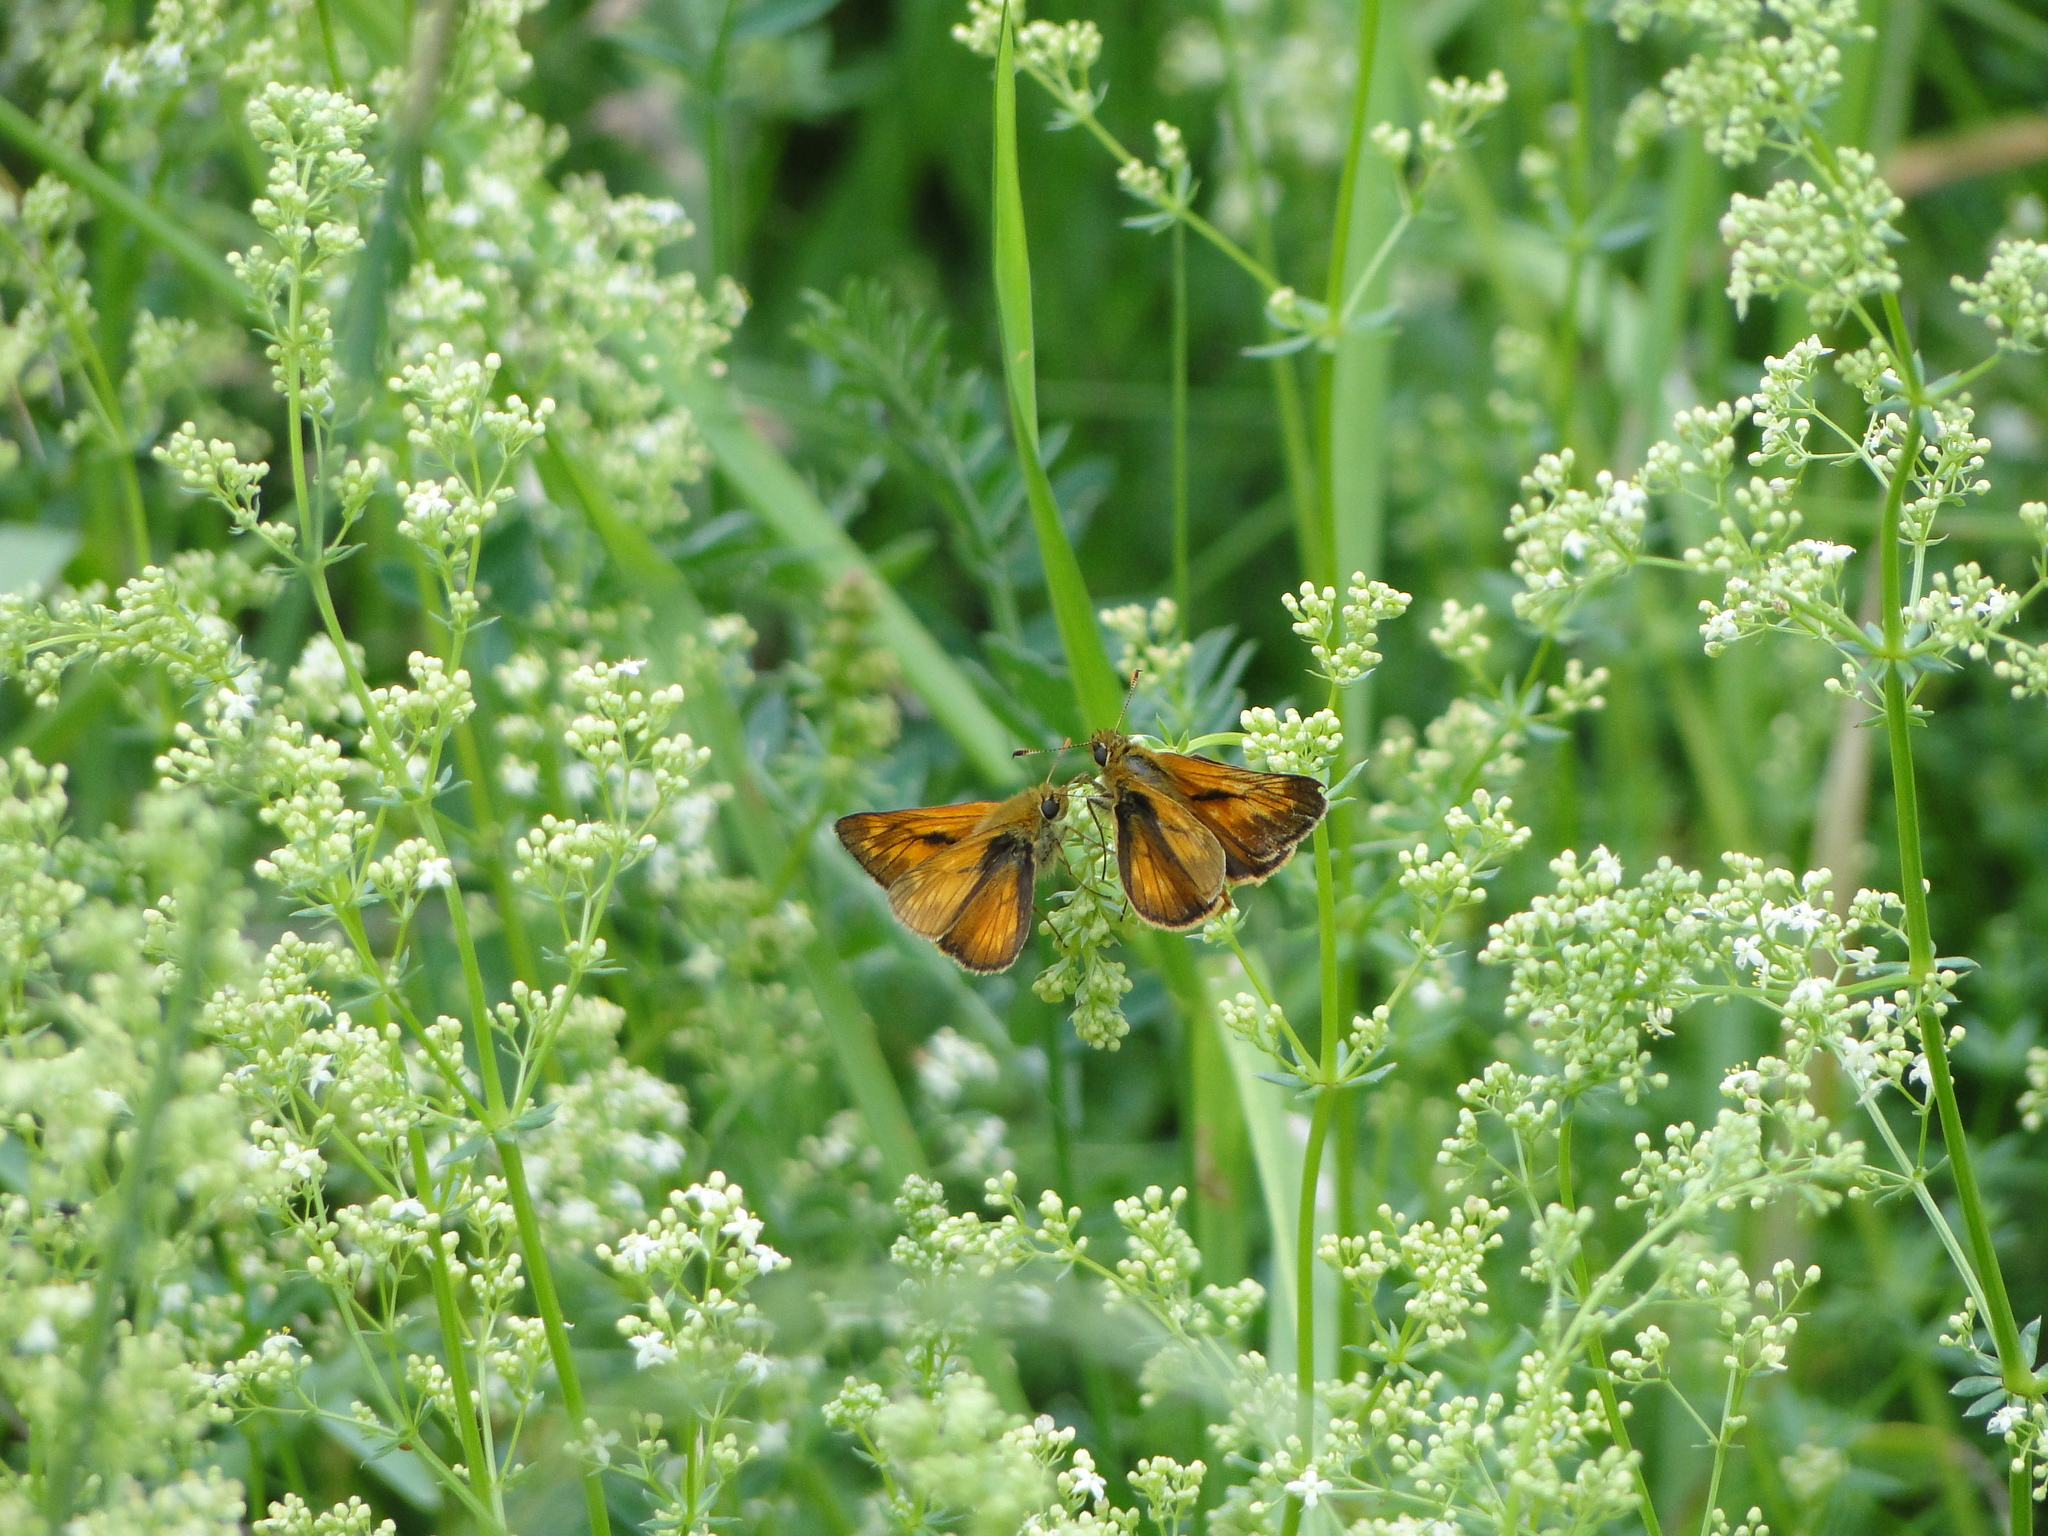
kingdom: Animalia
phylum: Arthropoda
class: Insecta
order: Lepidoptera
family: Hesperiidae
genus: Ochlodes
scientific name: Ochlodes venata
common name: Large skipper
